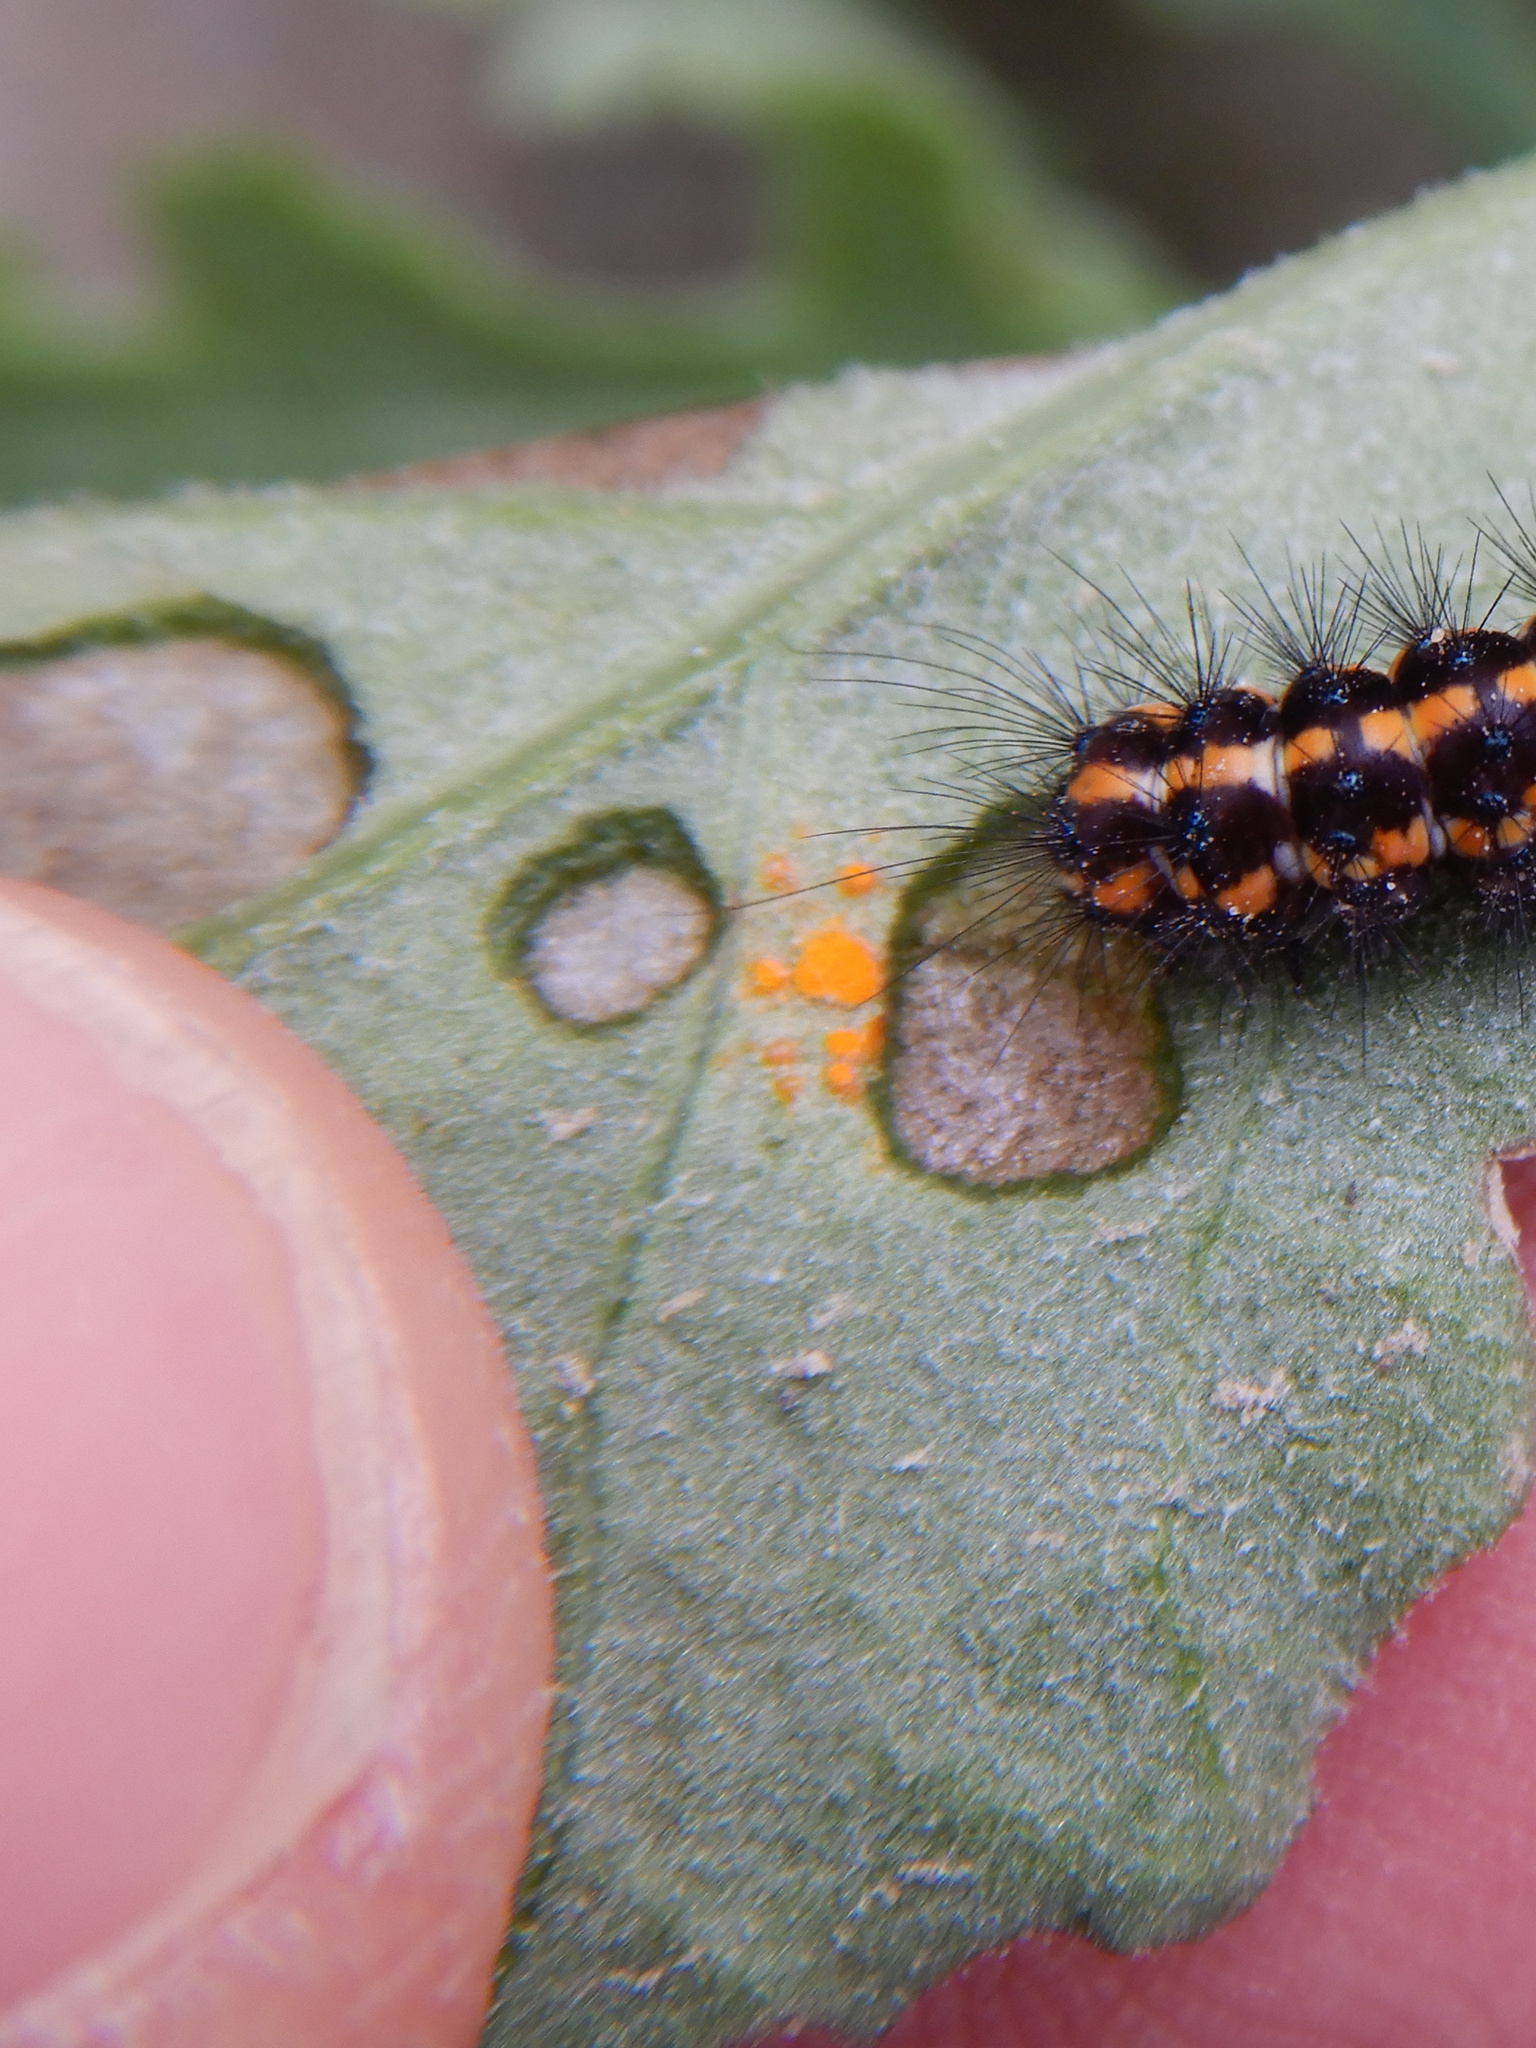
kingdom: Fungi
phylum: Basidiomycota
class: Pucciniomycetes
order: Pucciniales
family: Coleosporiaceae
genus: Coleosporium
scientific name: Coleosporium tussilaginis
